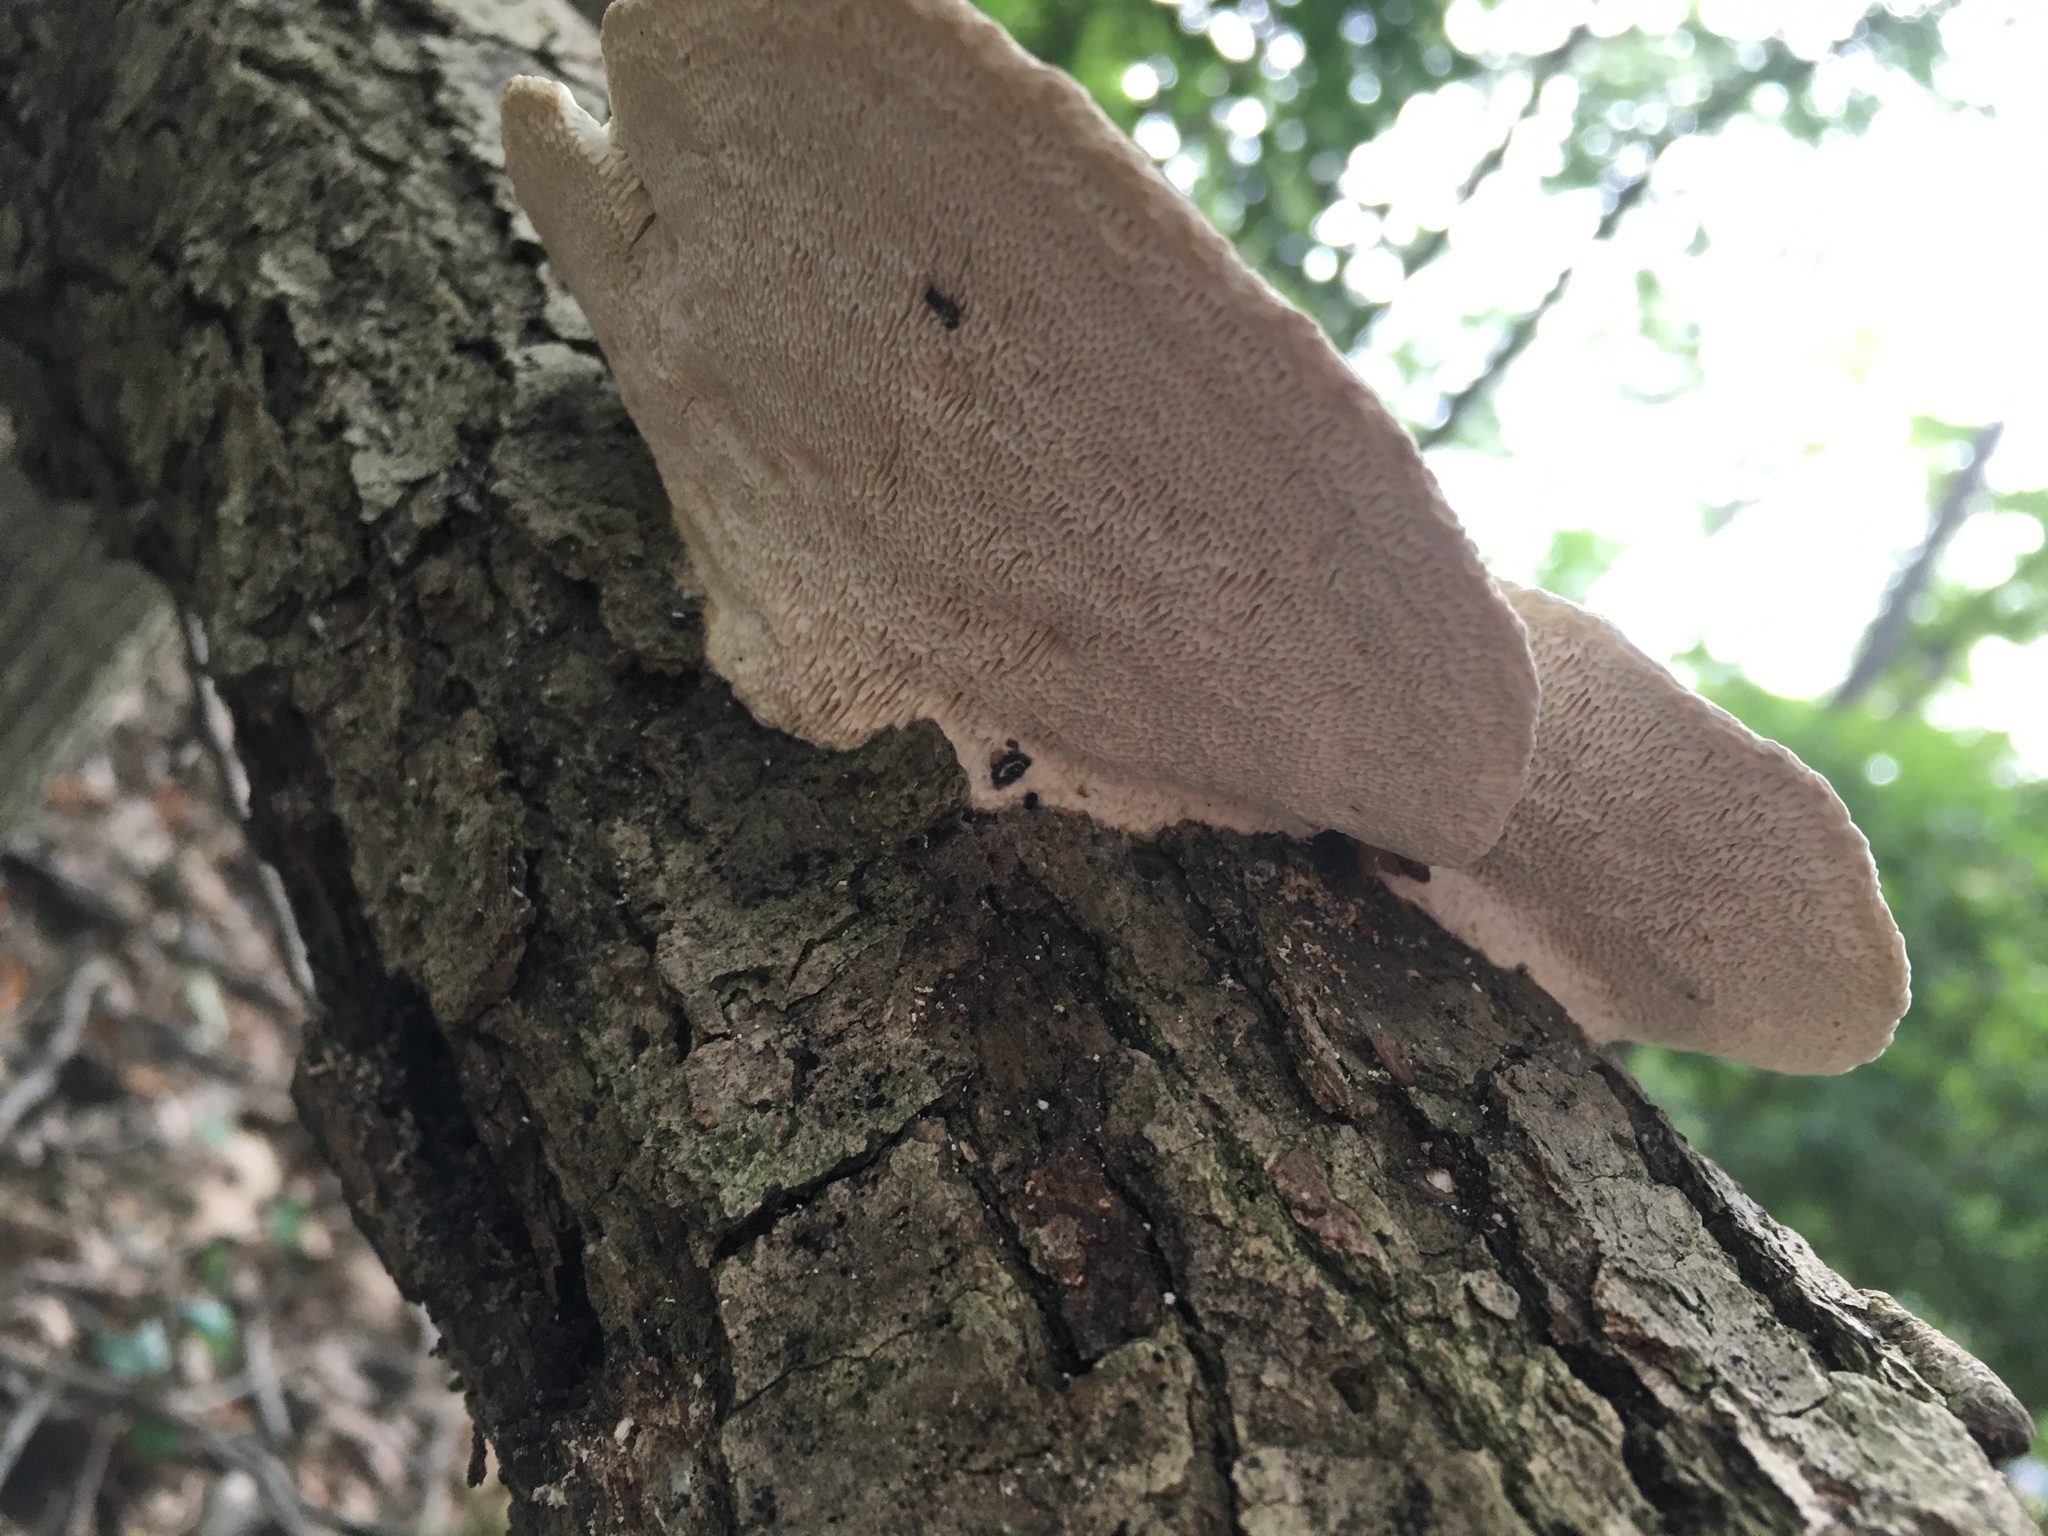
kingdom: Fungi
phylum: Basidiomycota
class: Agaricomycetes
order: Polyporales
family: Polyporaceae
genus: Trametes
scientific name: Trametes gibbosa
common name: Lumpy bracket
